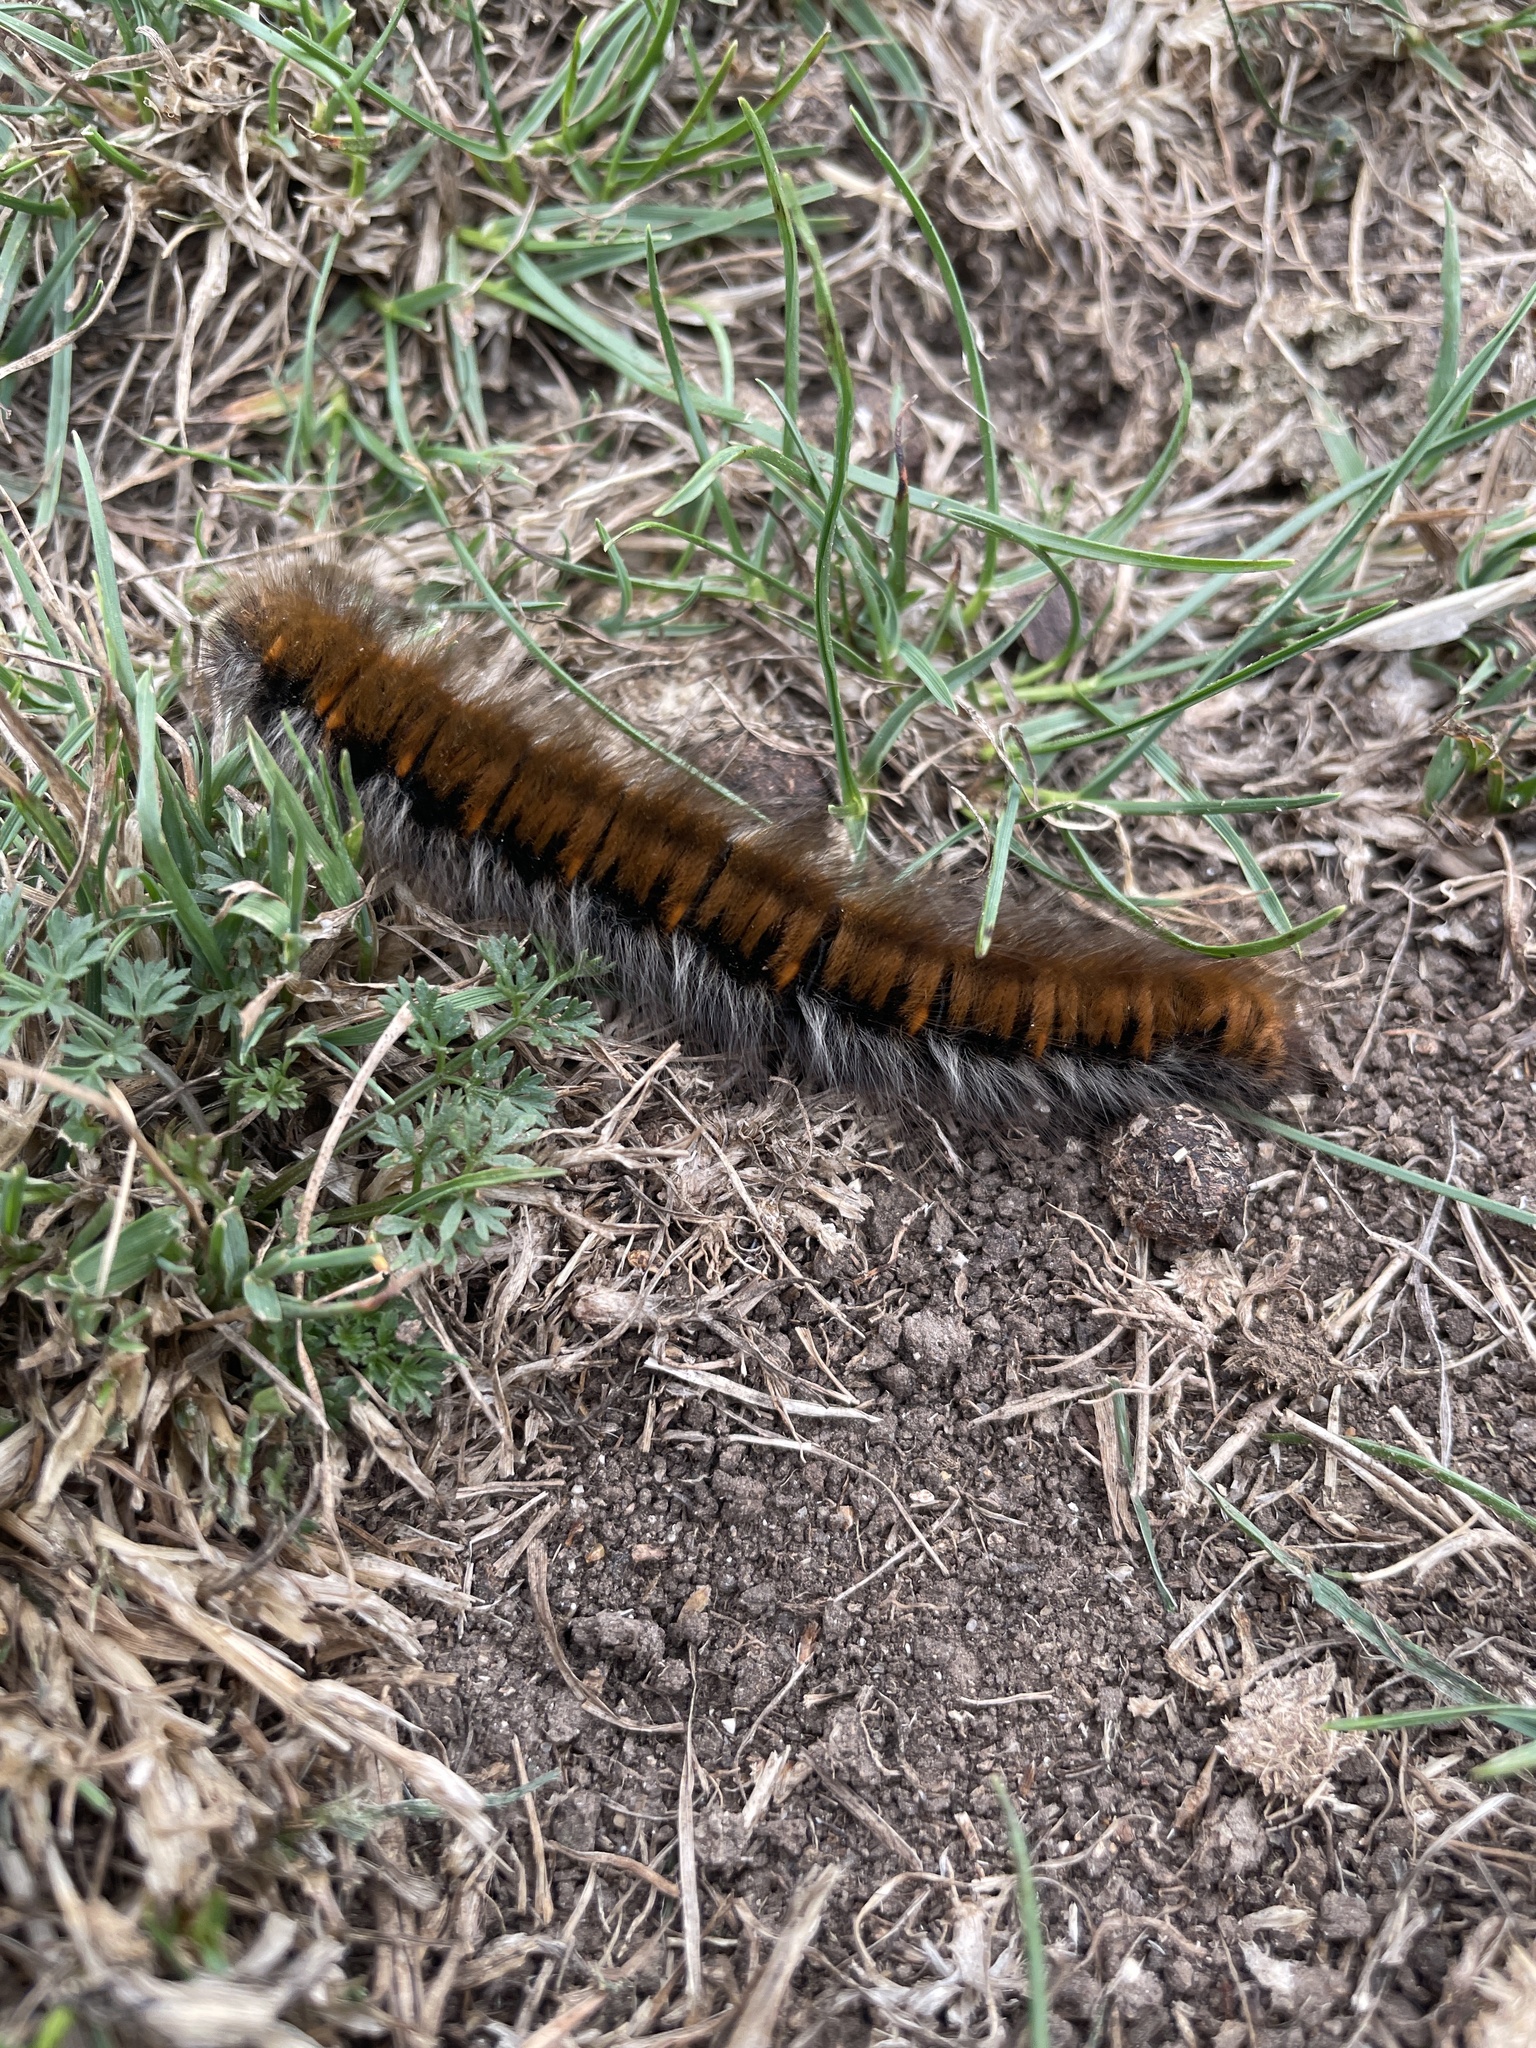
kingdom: Animalia
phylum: Arthropoda
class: Insecta
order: Lepidoptera
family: Lasiocampidae
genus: Macrothylacia
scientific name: Macrothylacia rubi
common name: Fox moth
